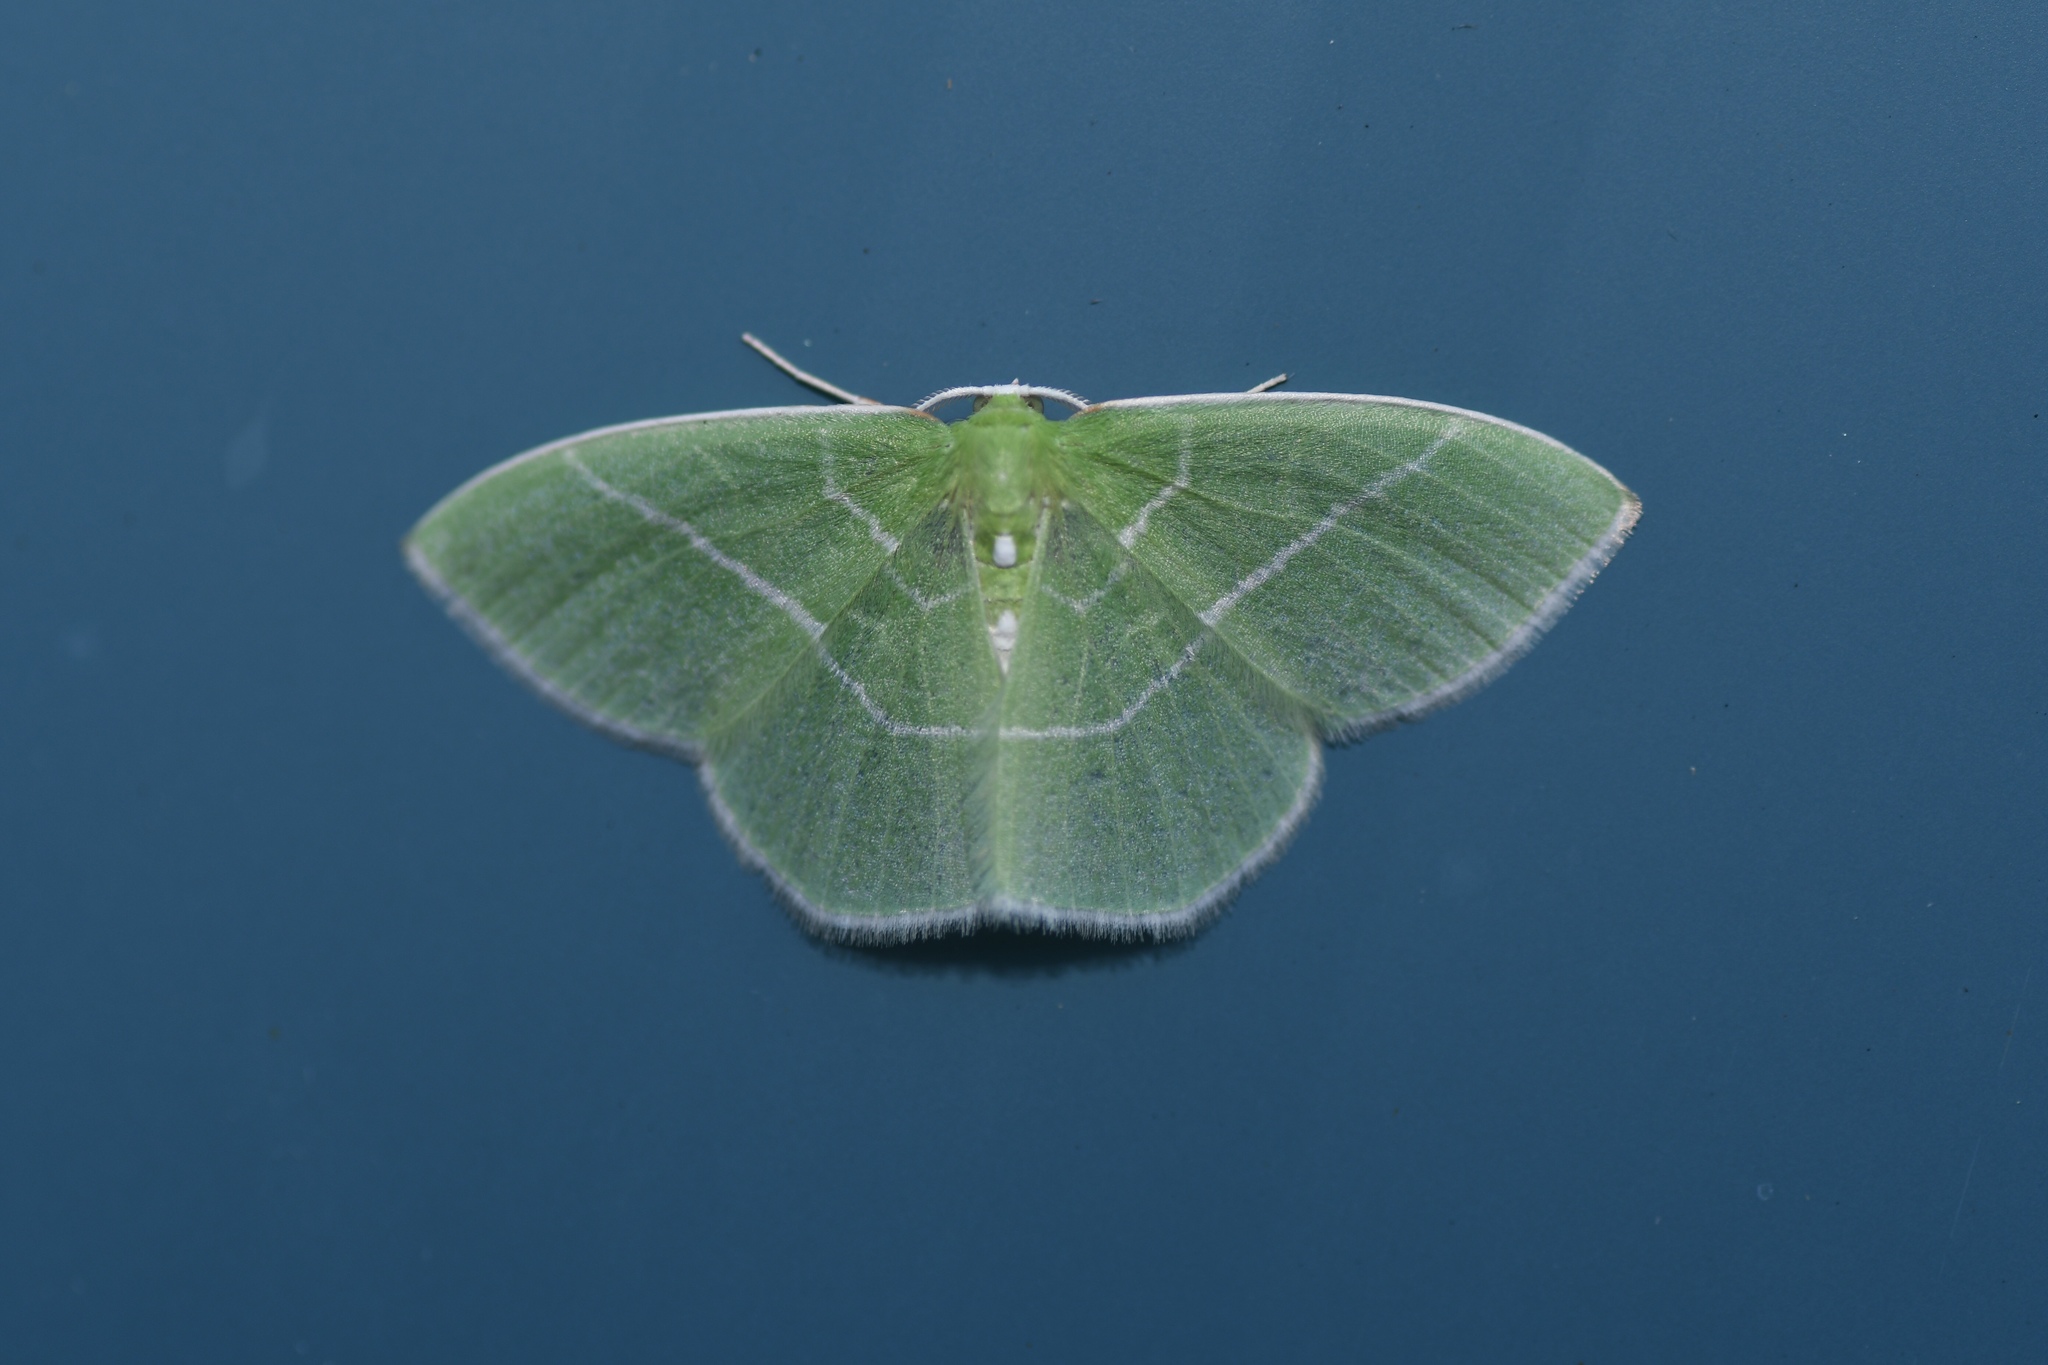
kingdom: Animalia
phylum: Arthropoda
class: Insecta
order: Lepidoptera
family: Geometridae
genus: Nemoria
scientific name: Nemoria mimosaria
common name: White-fringed emerald
